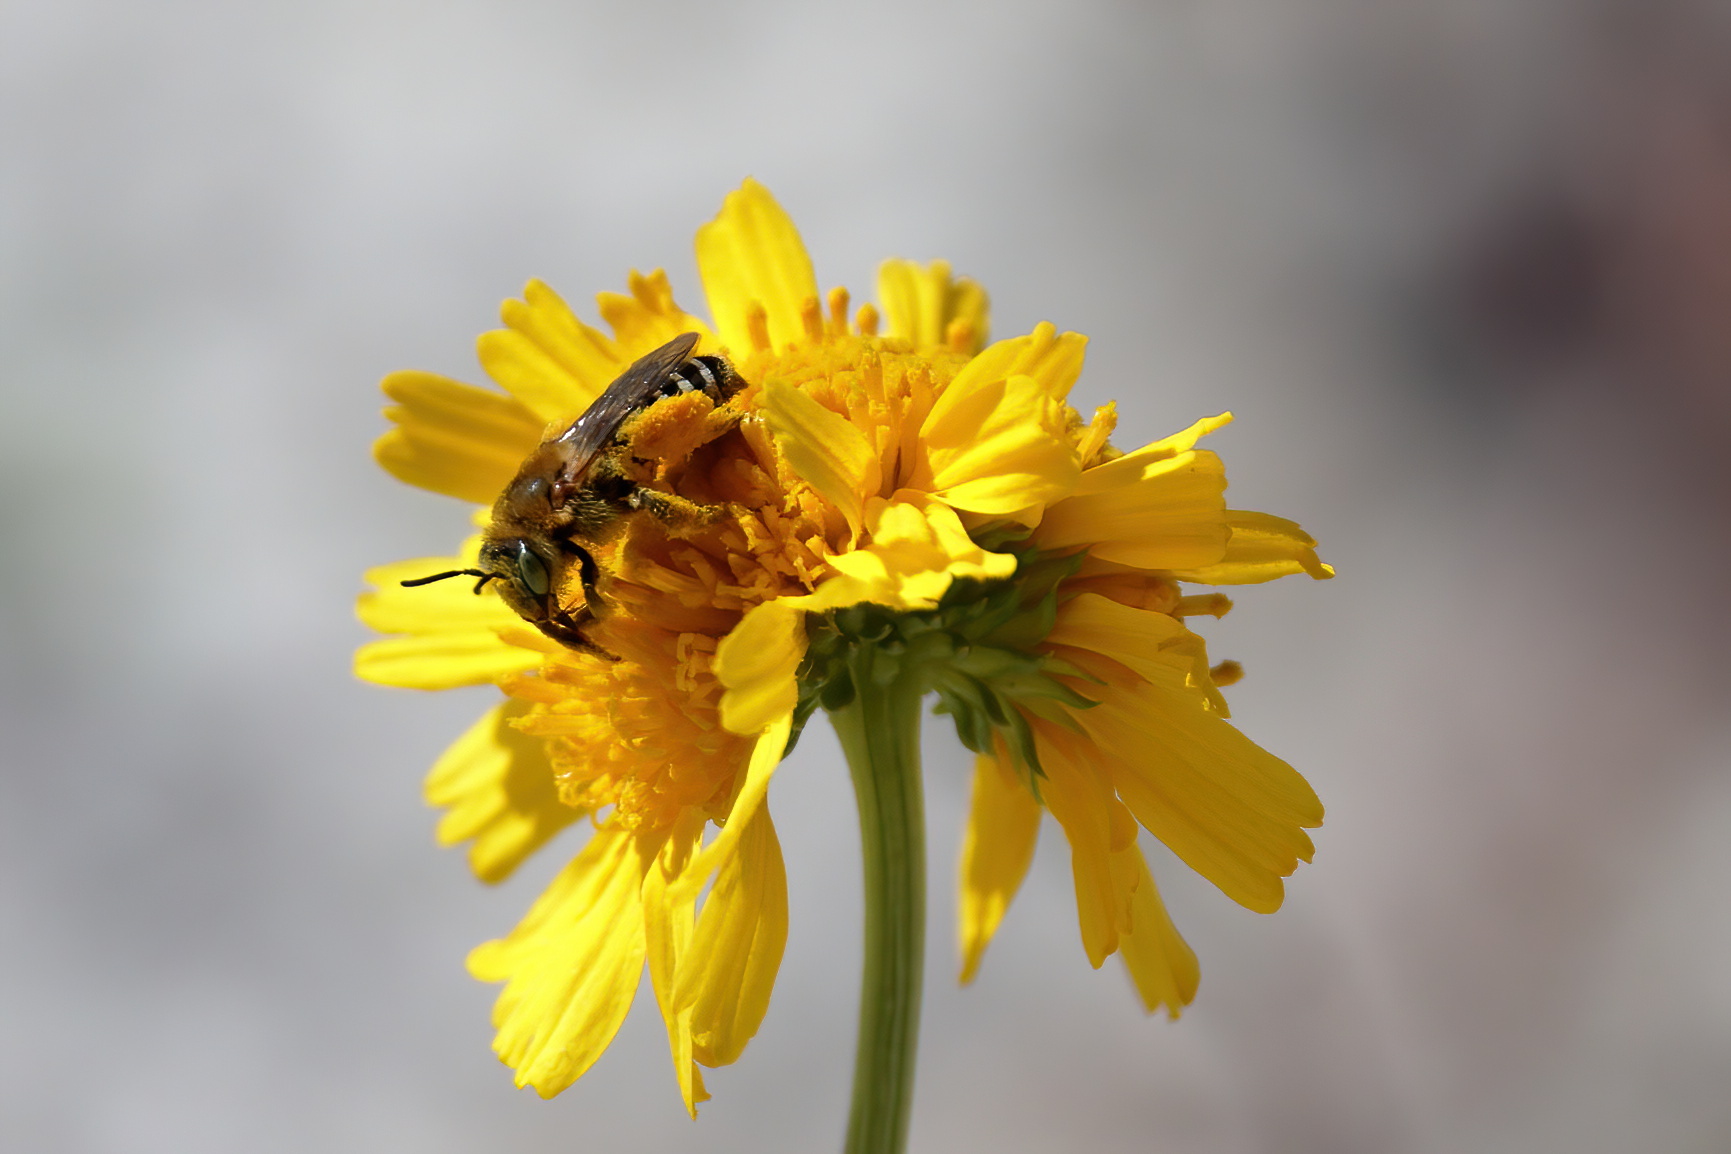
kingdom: Animalia
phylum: Arthropoda
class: Insecta
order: Hymenoptera
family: Melittidae
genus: Hesperapis
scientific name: Hesperapis oraria
